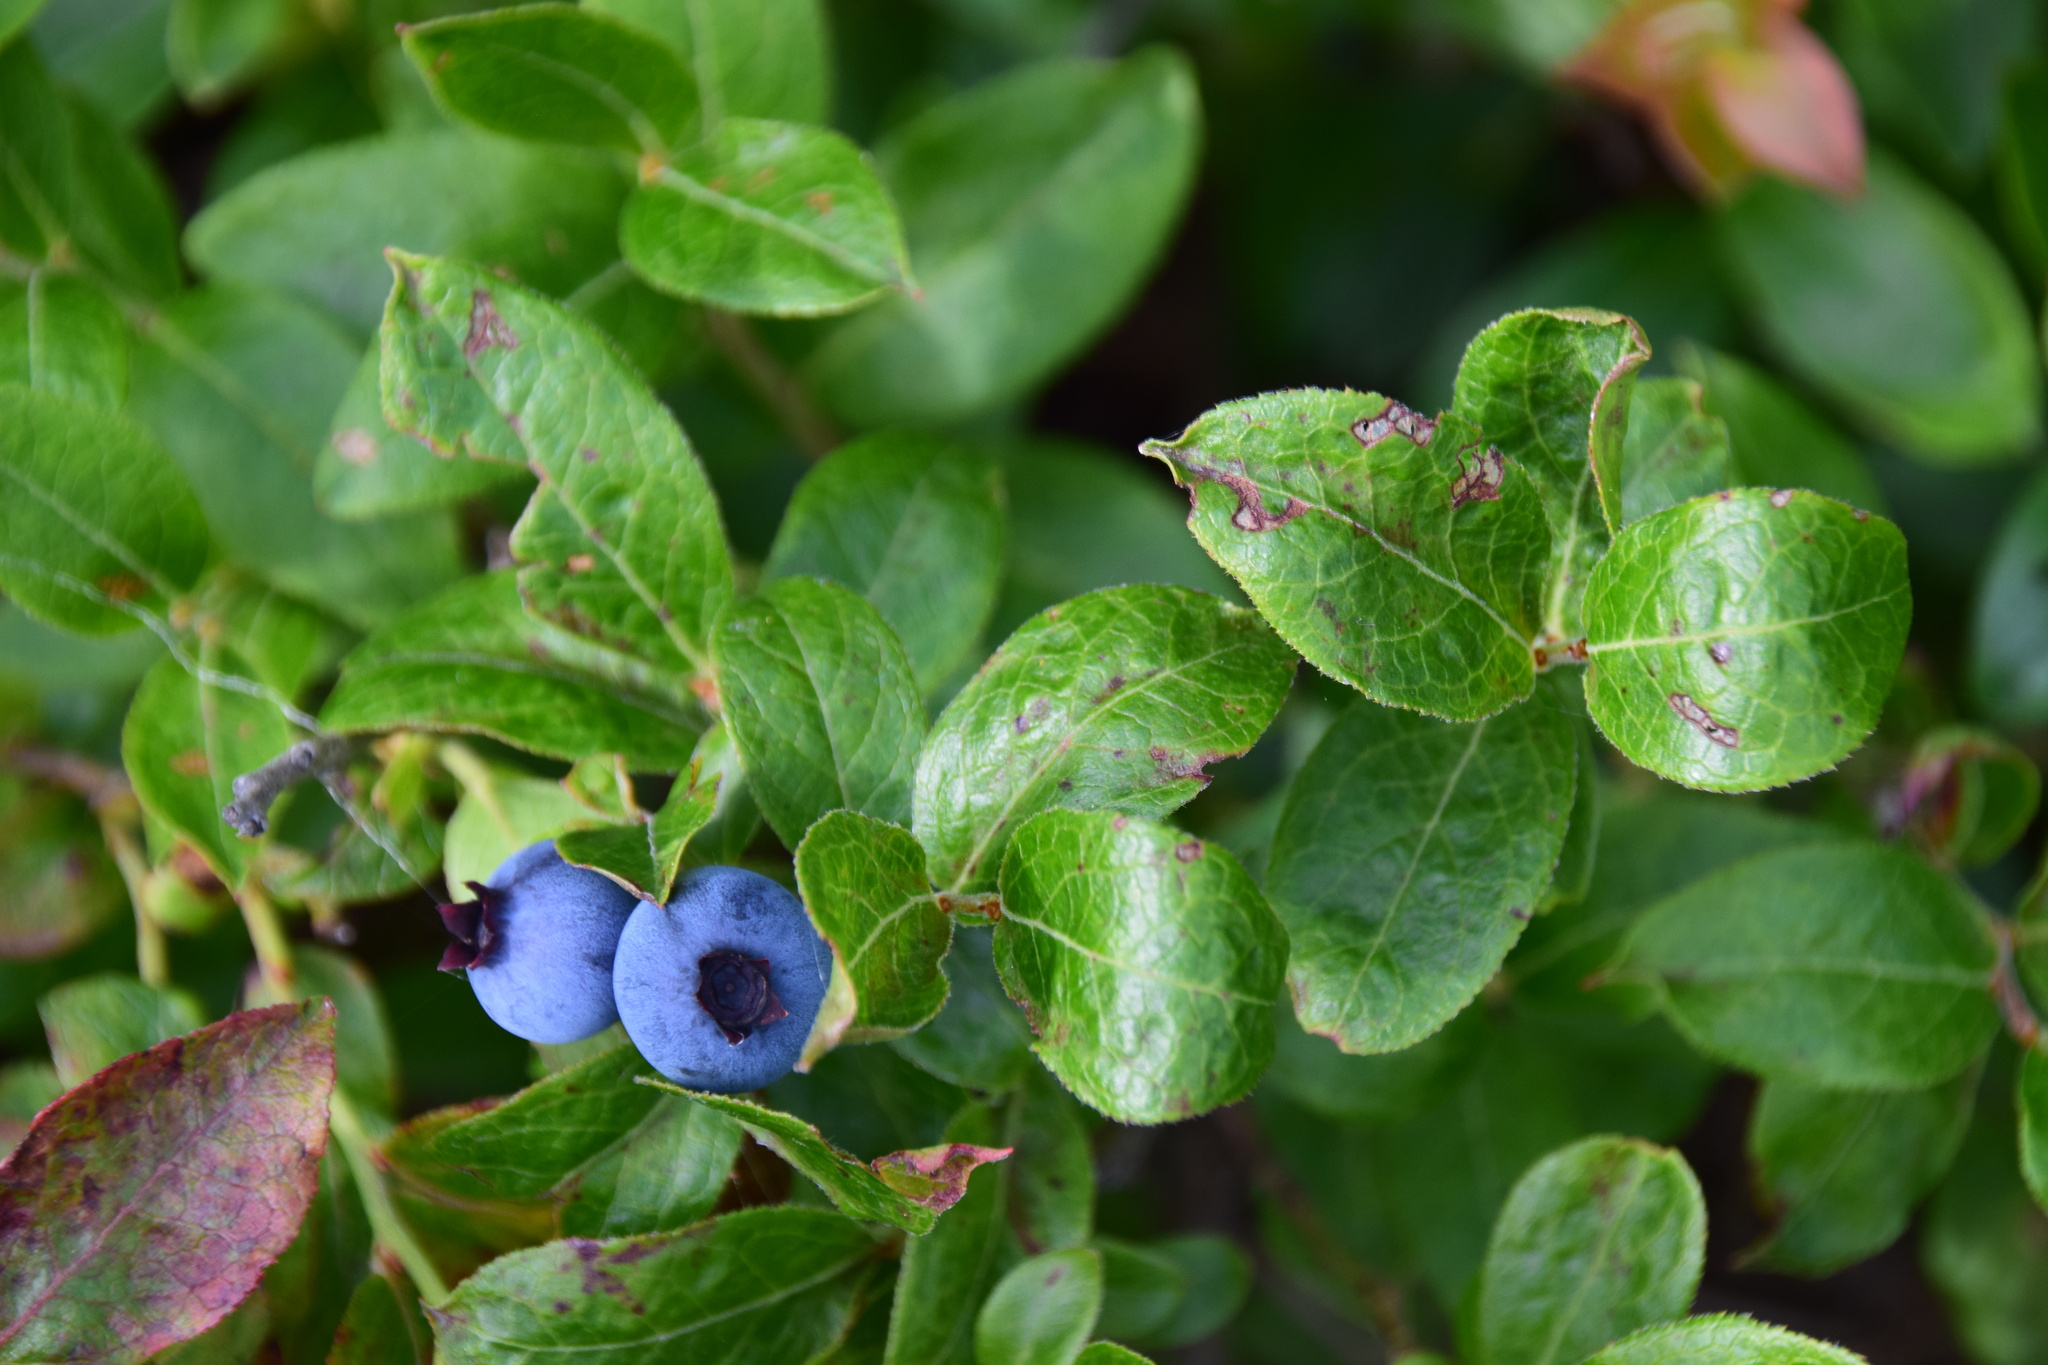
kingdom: Plantae
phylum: Tracheophyta
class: Magnoliopsida
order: Ericales
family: Ericaceae
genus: Vaccinium
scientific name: Vaccinium angustifolium
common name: Early lowbush blueberry
